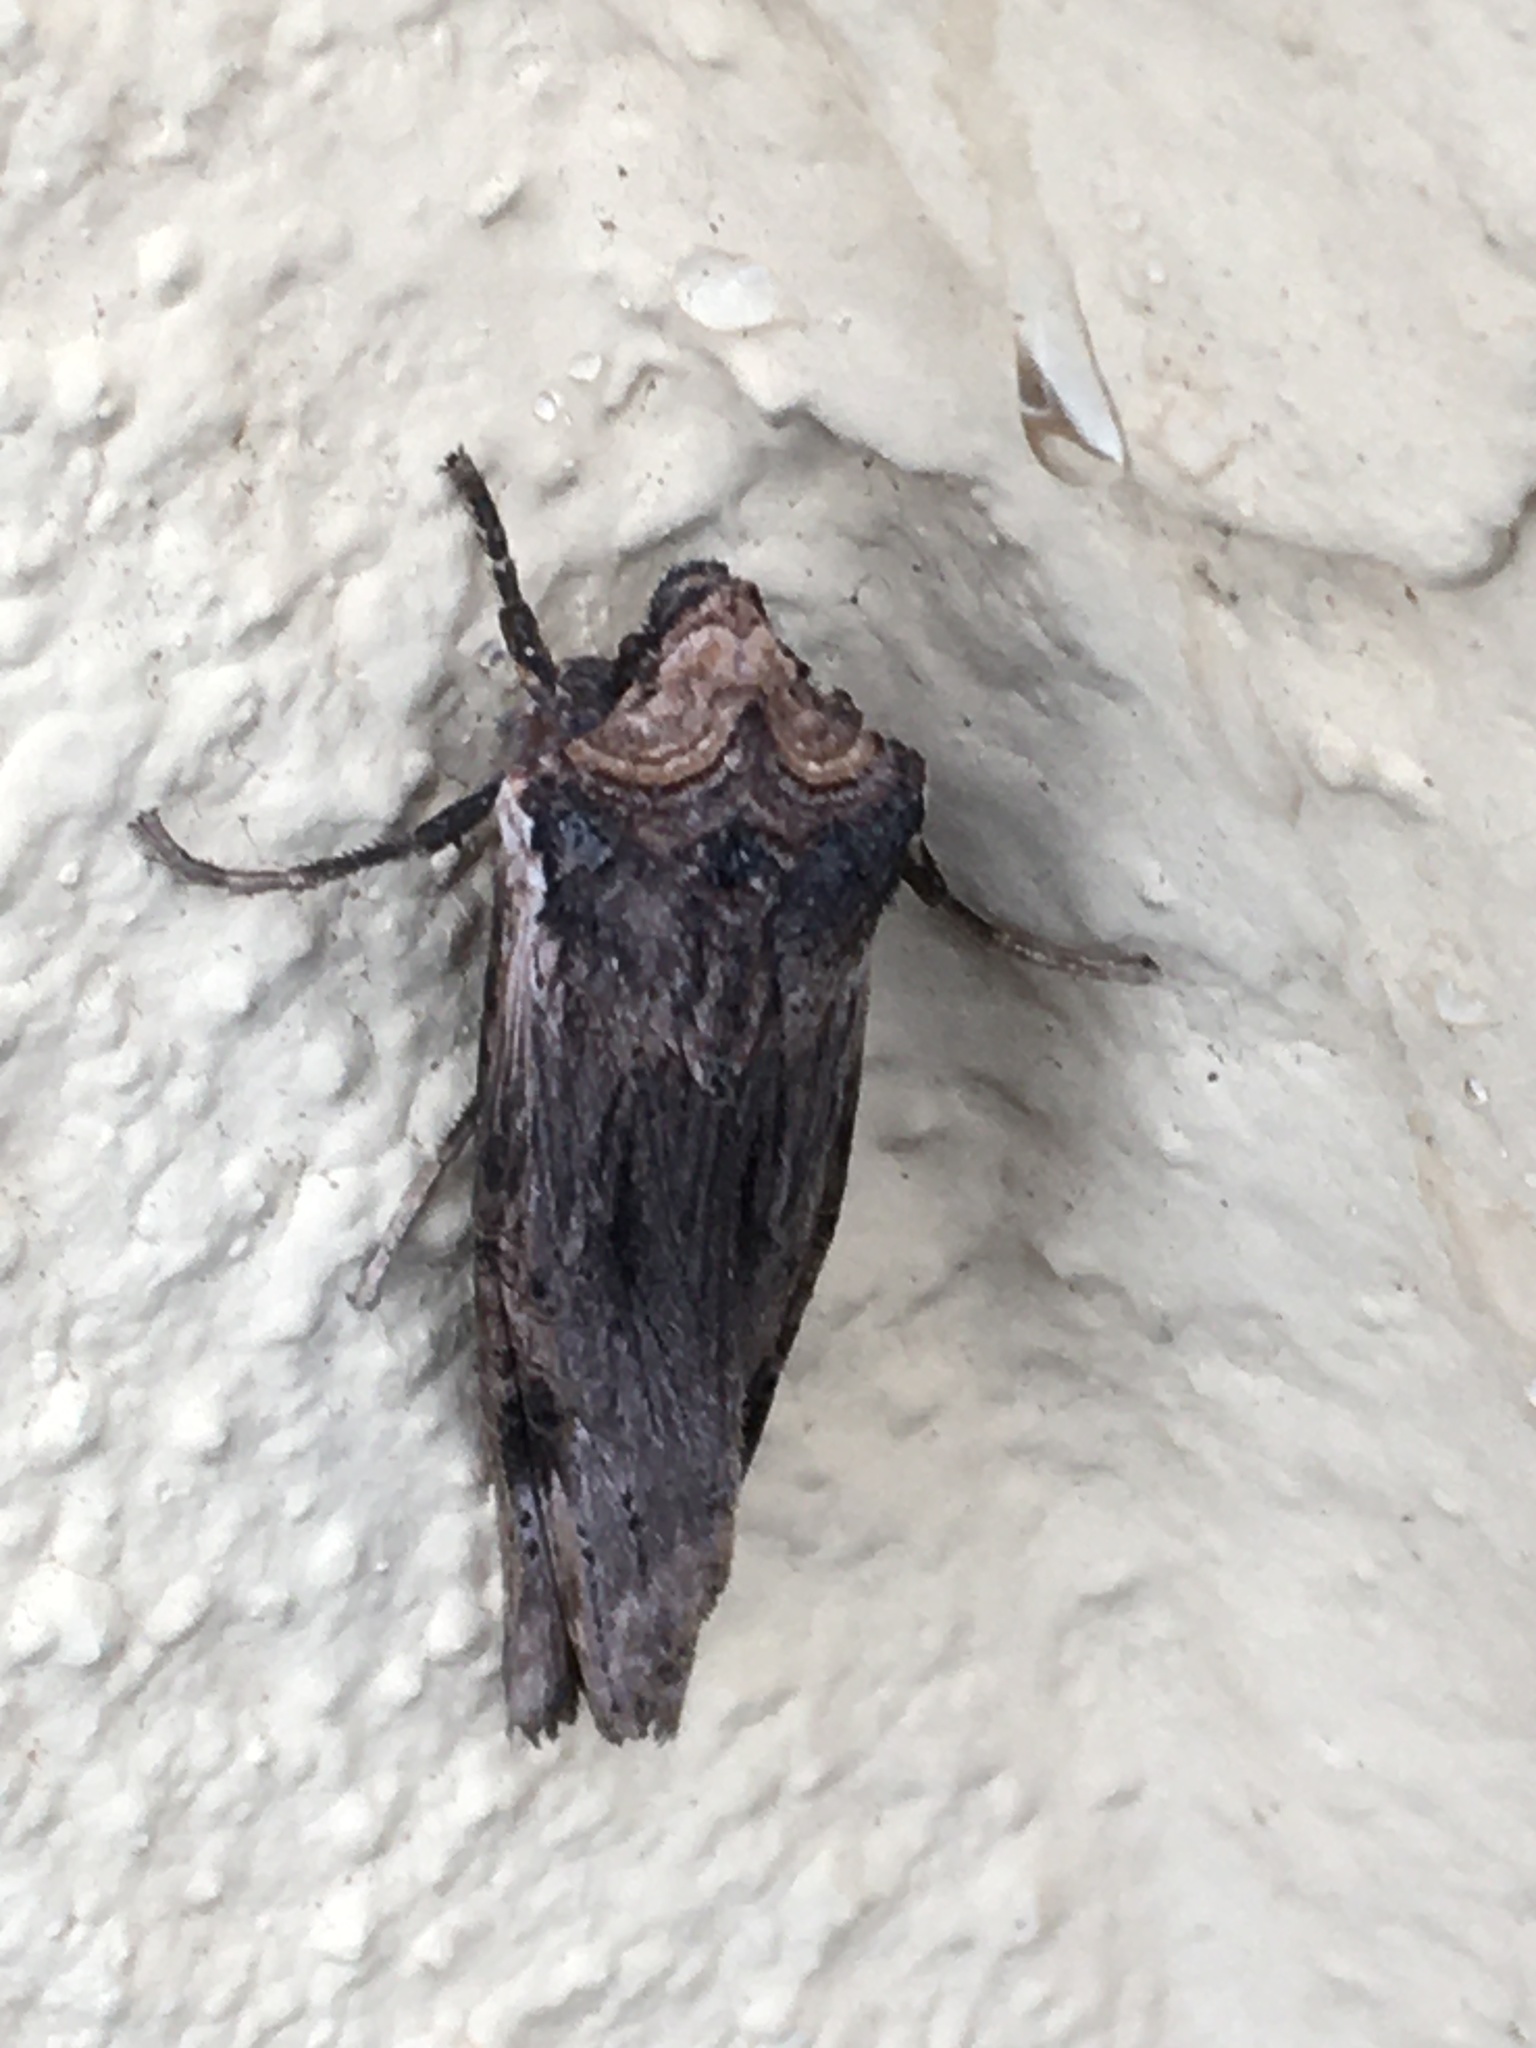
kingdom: Animalia
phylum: Arthropoda
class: Insecta
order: Lepidoptera
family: Noctuidae
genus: Xylena
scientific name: Xylena exsoleta
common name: Sword-grass
